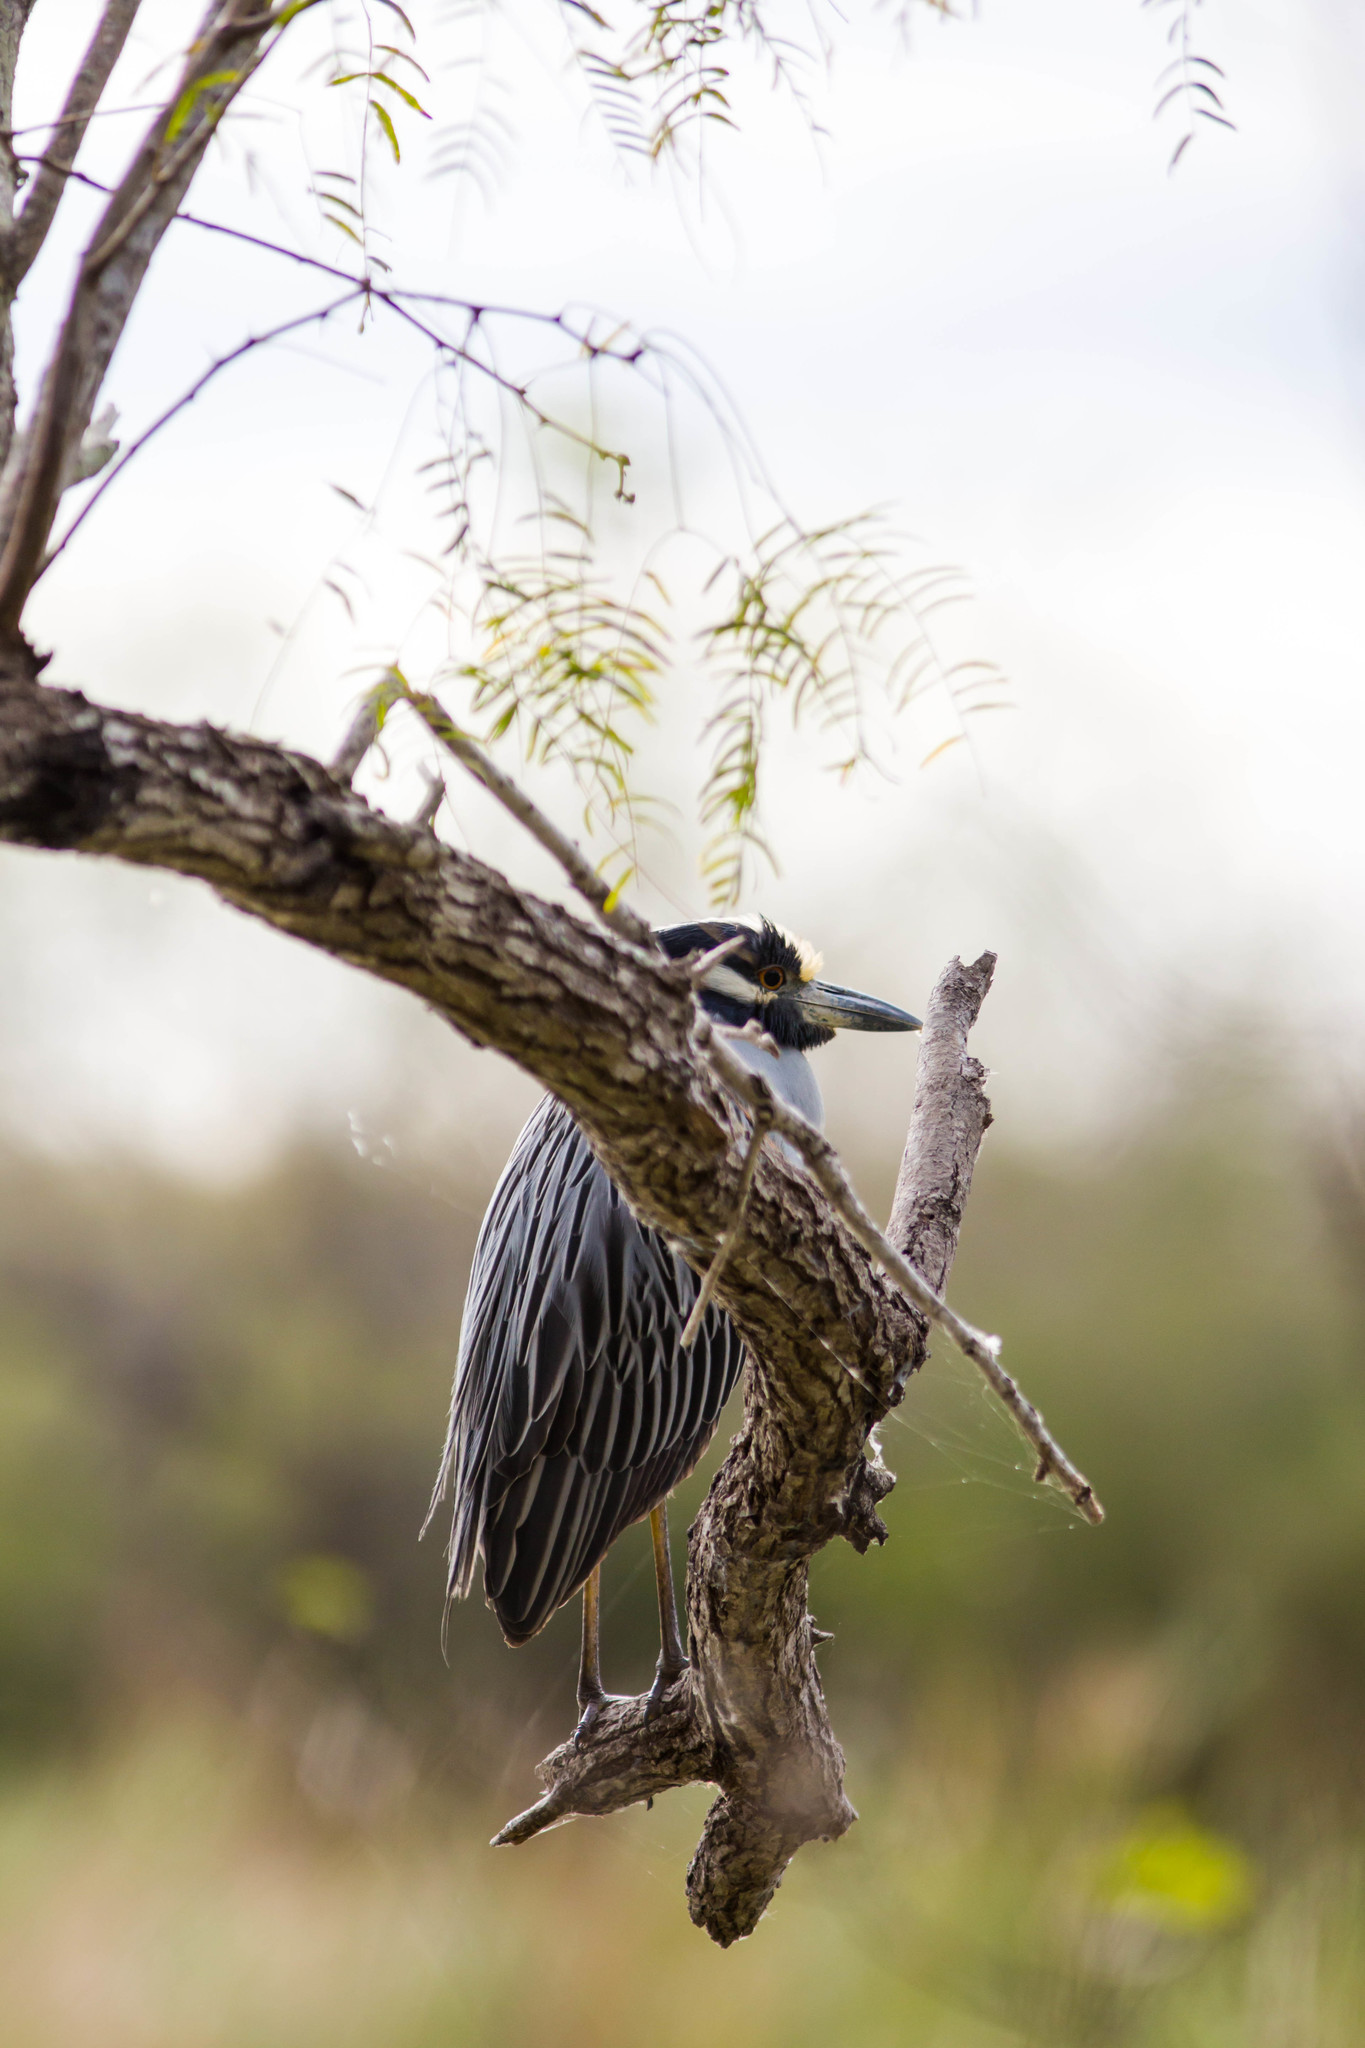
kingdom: Animalia
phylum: Chordata
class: Aves
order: Pelecaniformes
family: Ardeidae
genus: Nyctanassa
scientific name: Nyctanassa violacea
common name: Yellow-crowned night heron
